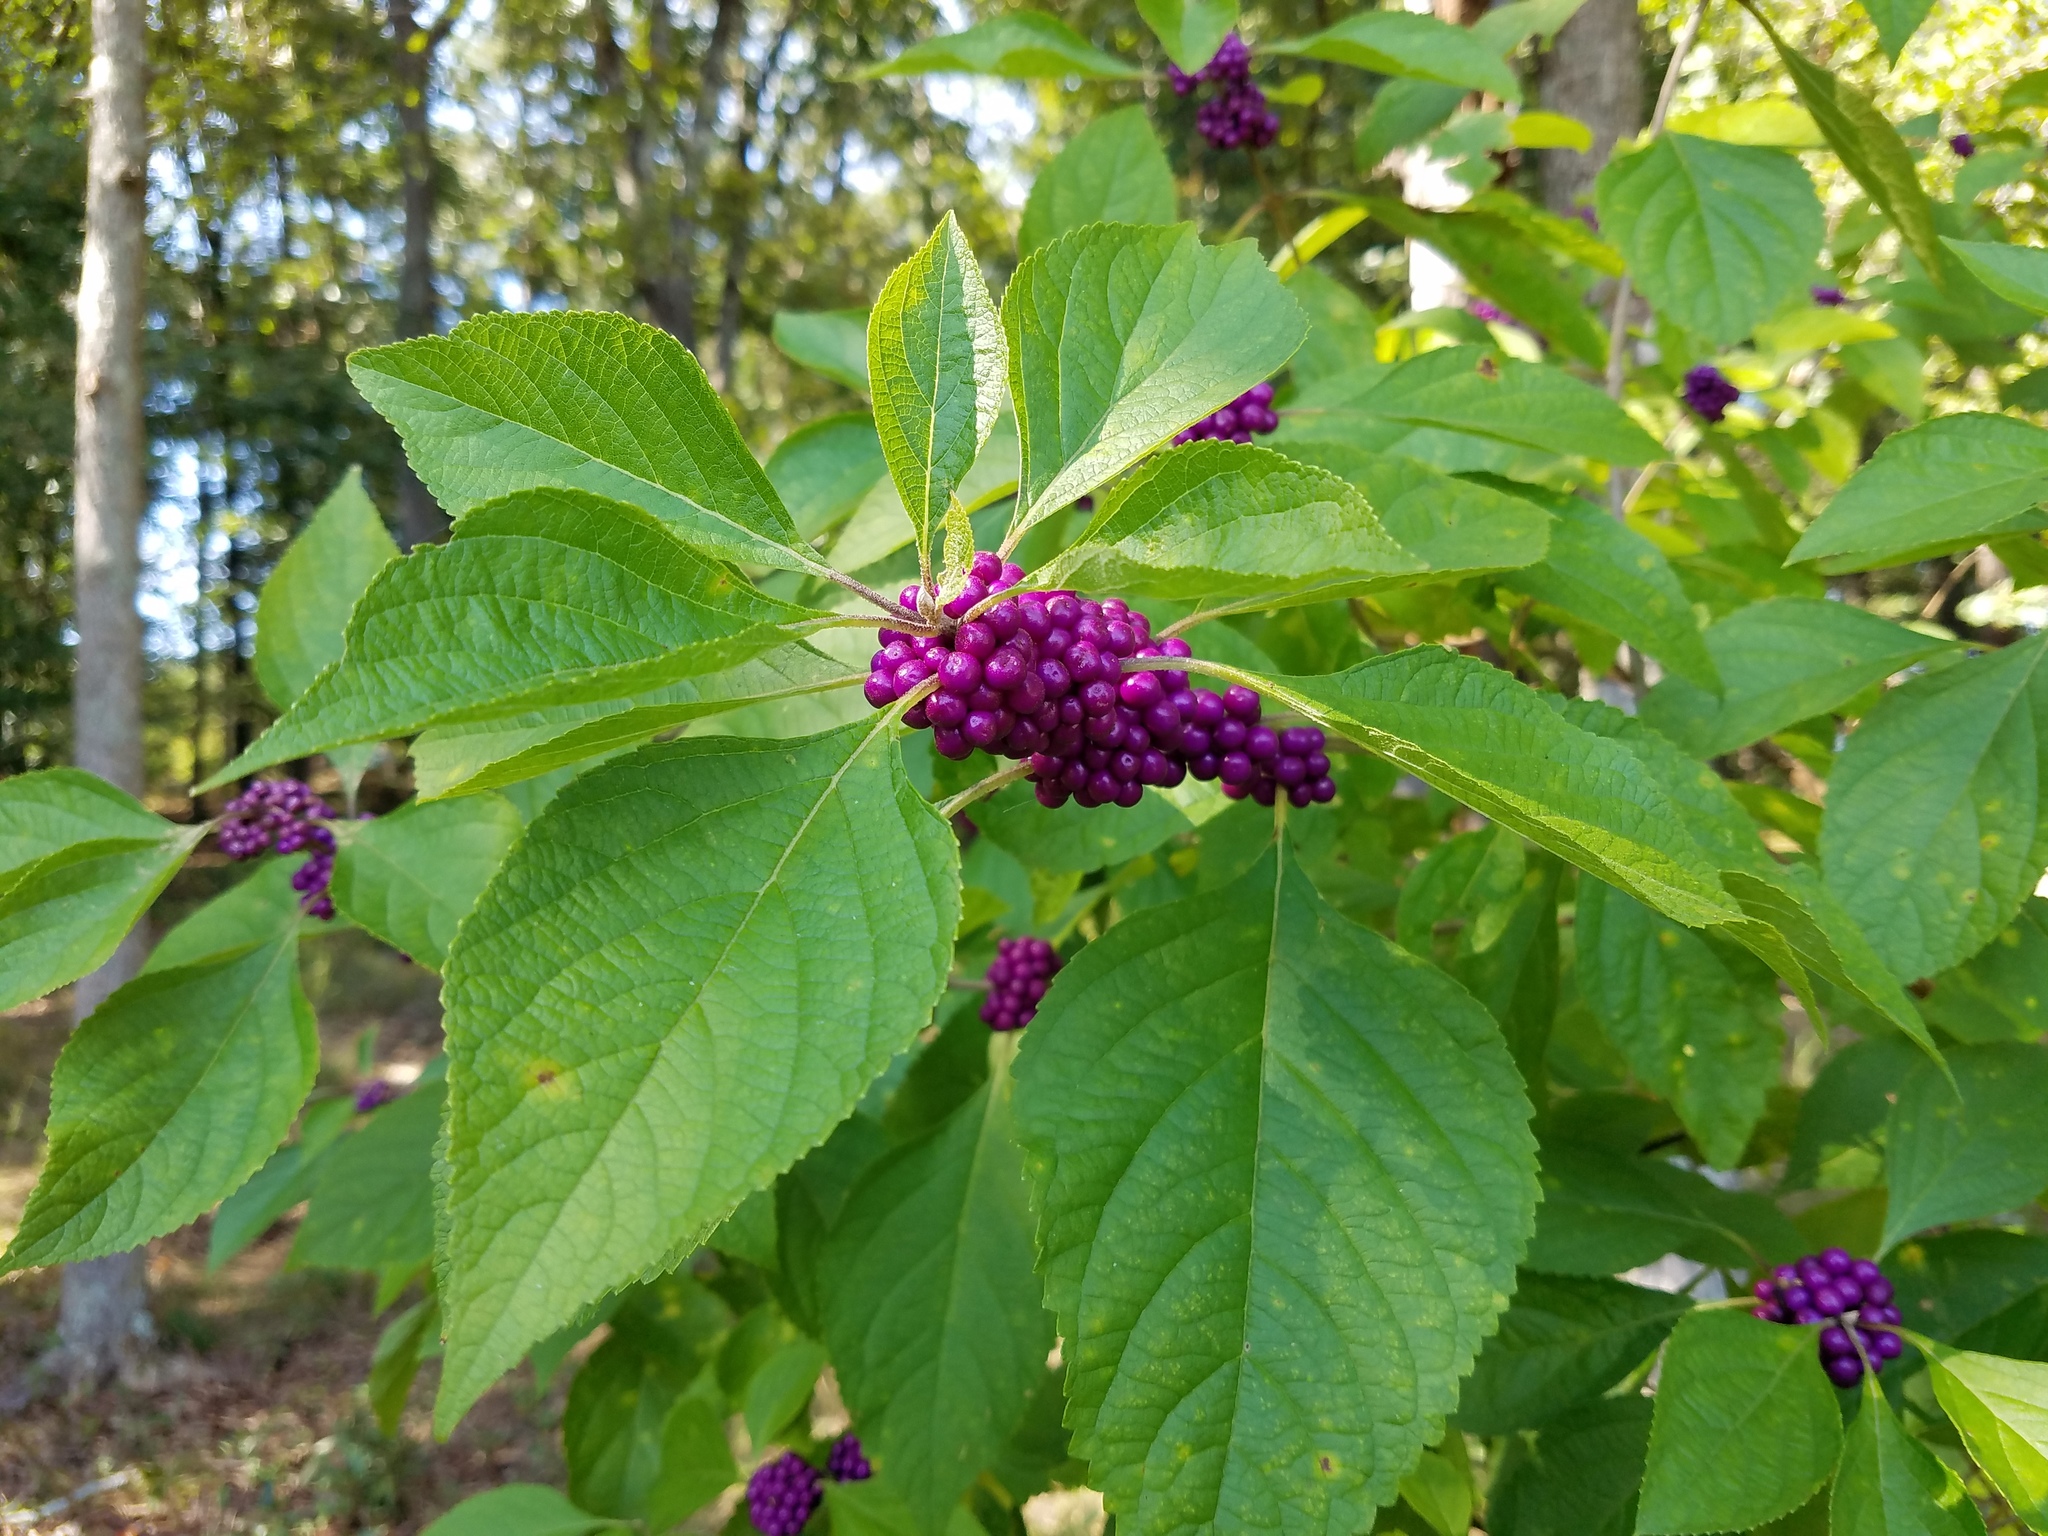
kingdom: Plantae
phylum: Tracheophyta
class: Magnoliopsida
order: Lamiales
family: Lamiaceae
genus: Callicarpa
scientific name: Callicarpa americana
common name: American beautyberry
